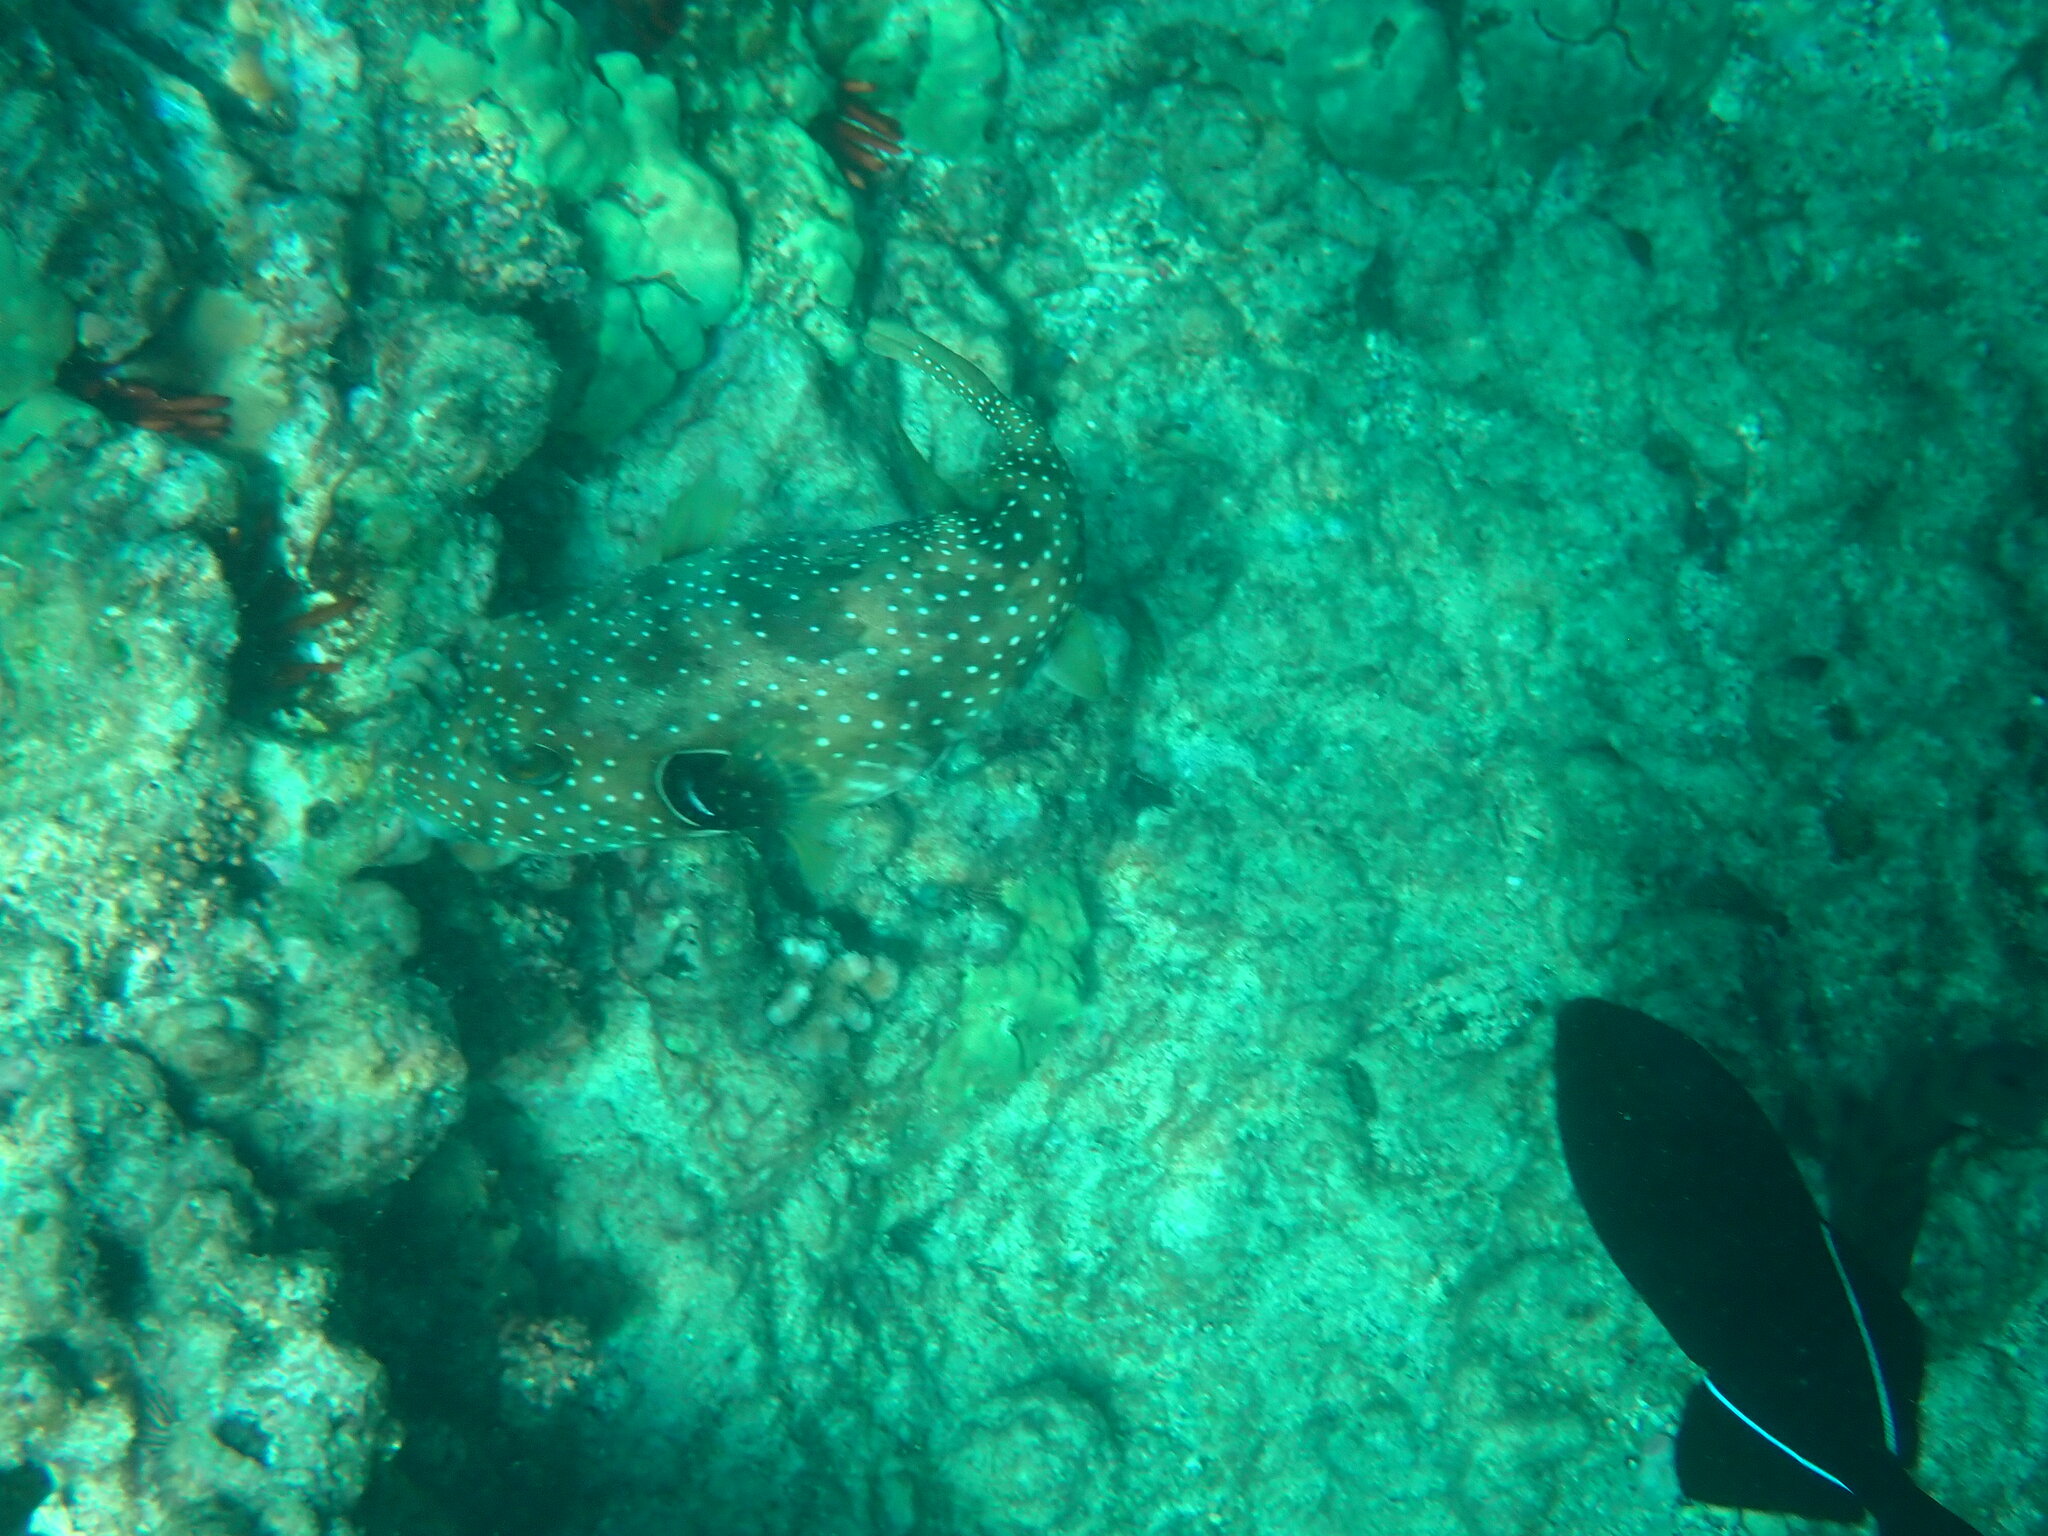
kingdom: Animalia
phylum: Chordata
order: Tetraodontiformes
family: Tetraodontidae
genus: Arothron
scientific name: Arothron hispidus
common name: Stripebelly puffer
